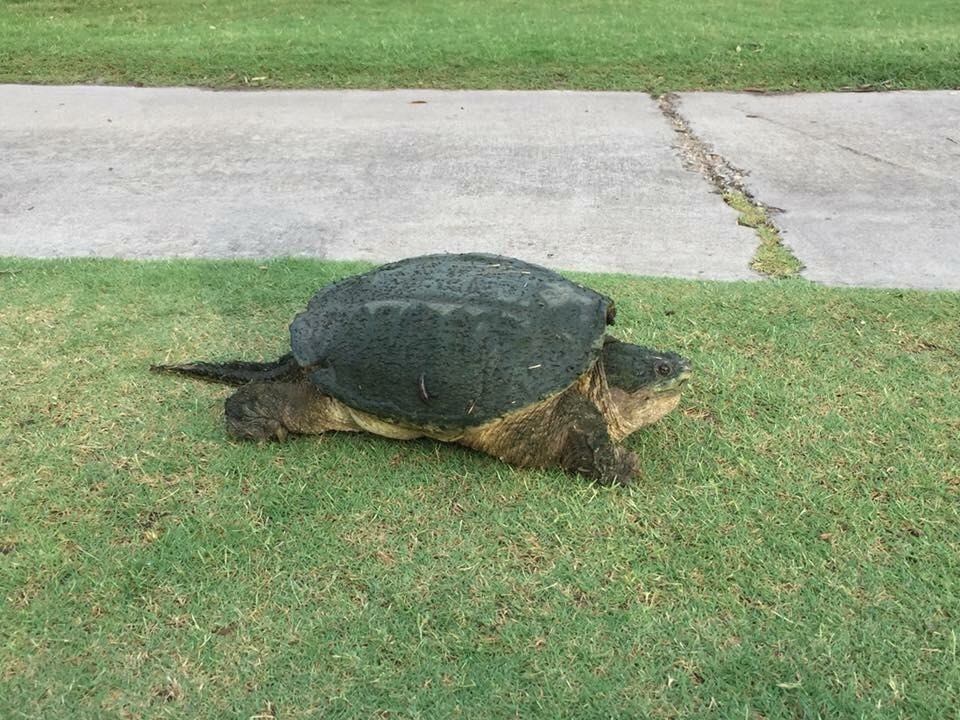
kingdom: Animalia
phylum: Chordata
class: Testudines
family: Chelydridae
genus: Chelydra
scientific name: Chelydra serpentina
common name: Common snapping turtle
